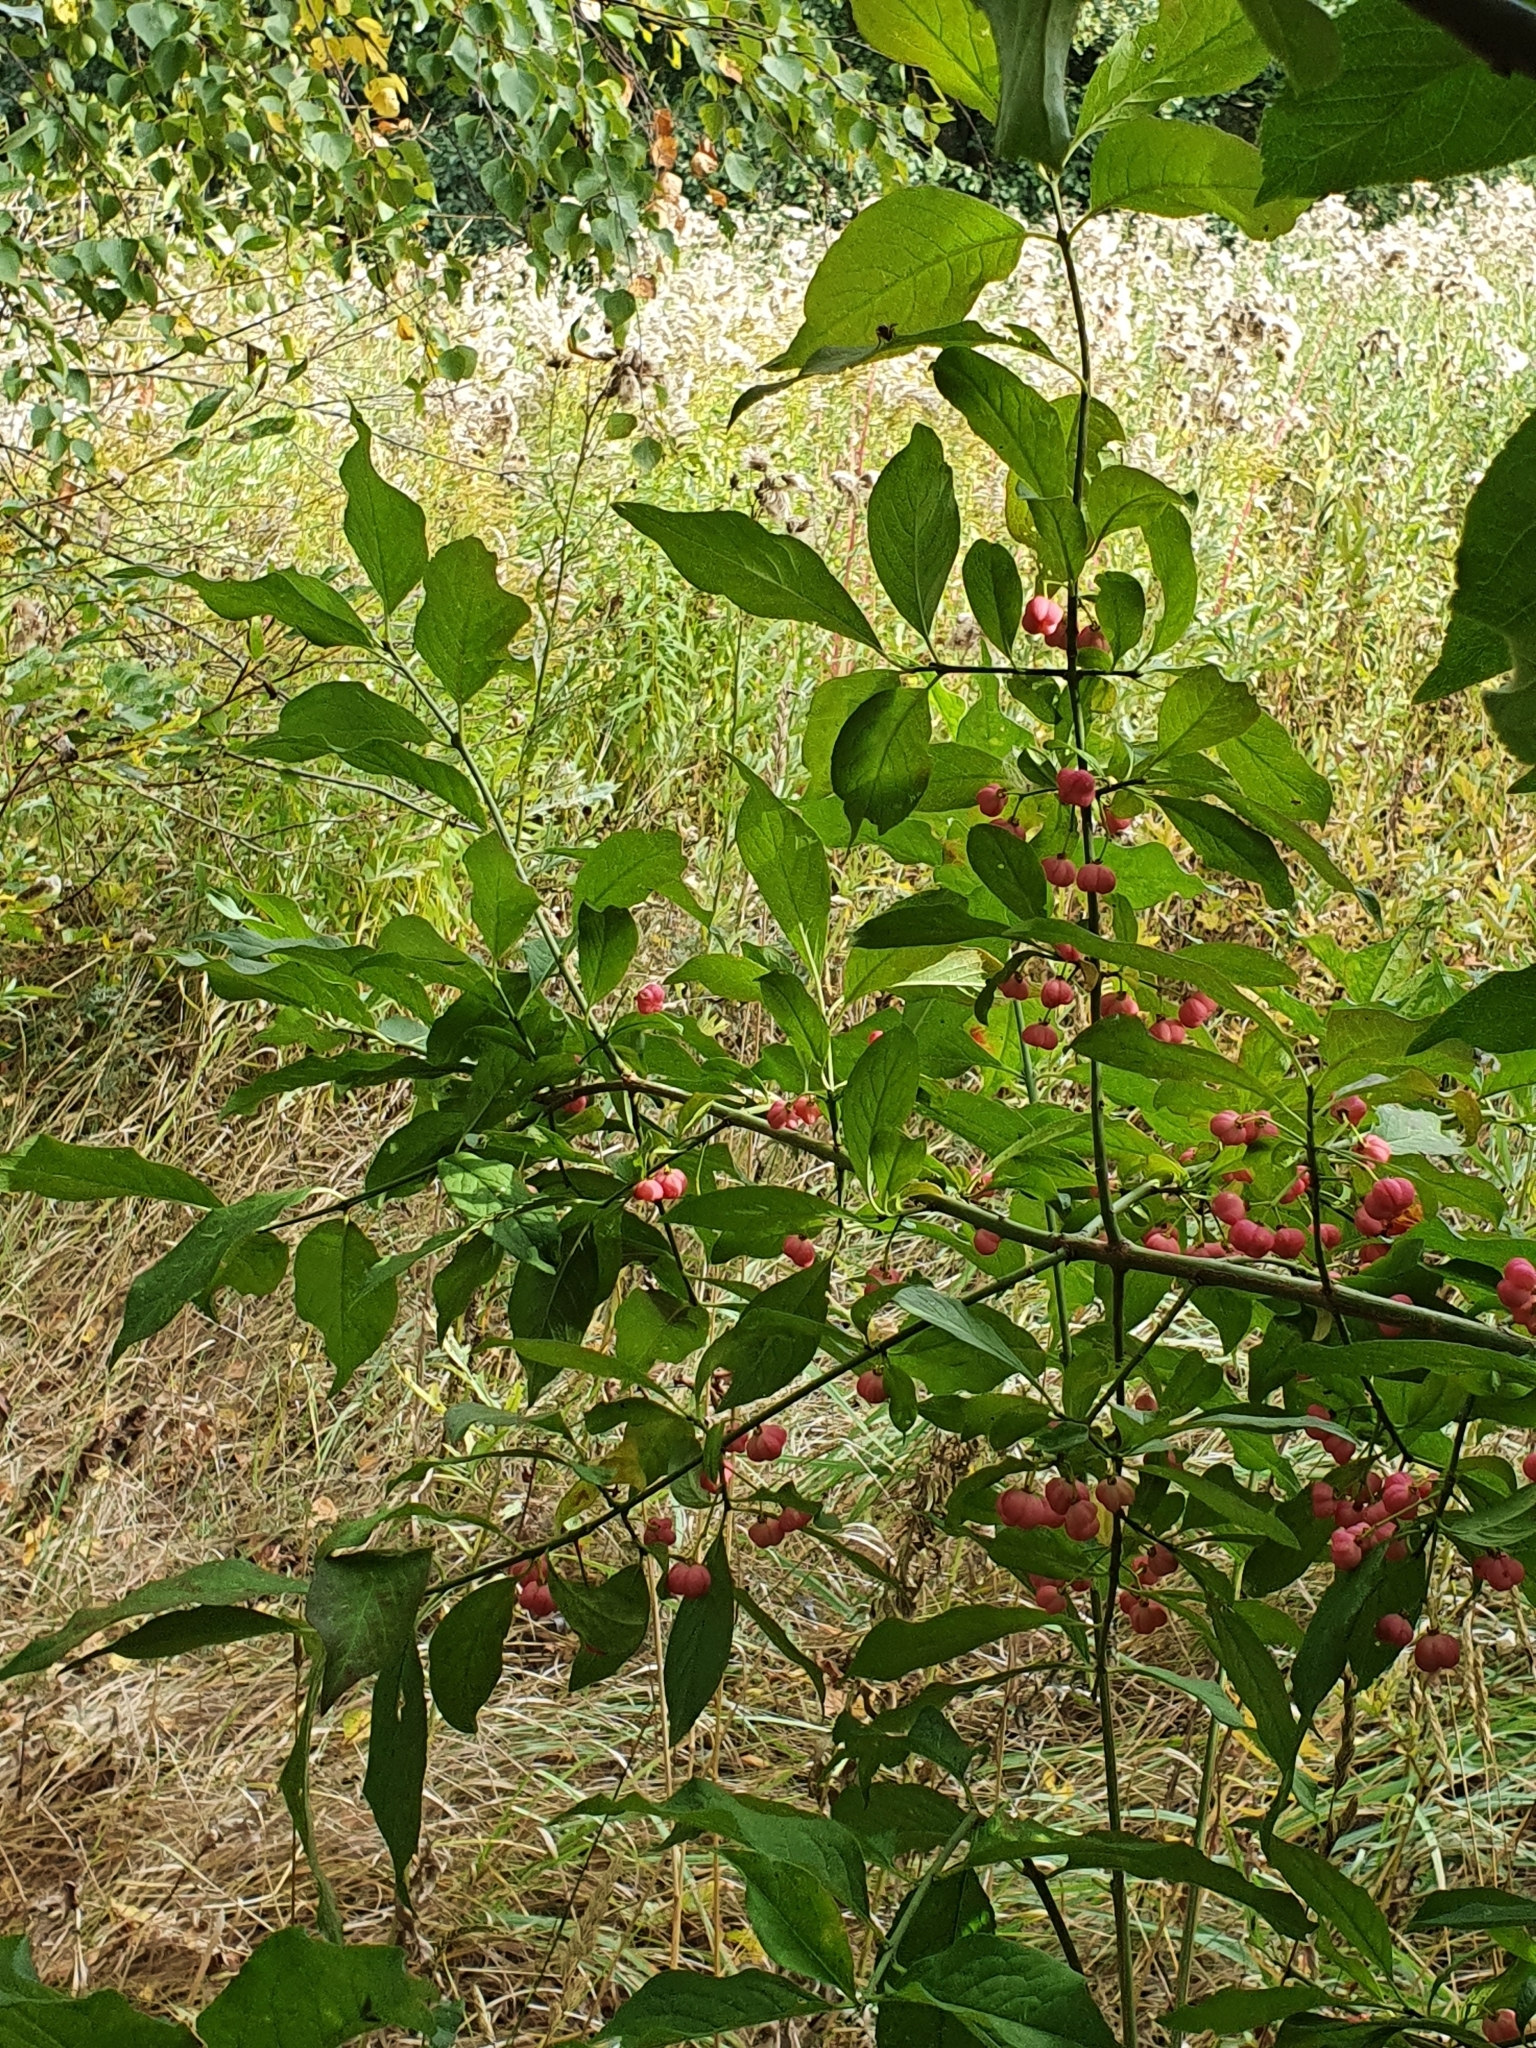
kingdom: Plantae
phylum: Tracheophyta
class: Magnoliopsida
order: Celastrales
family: Celastraceae
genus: Euonymus
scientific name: Euonymus europaeus
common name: Spindle
